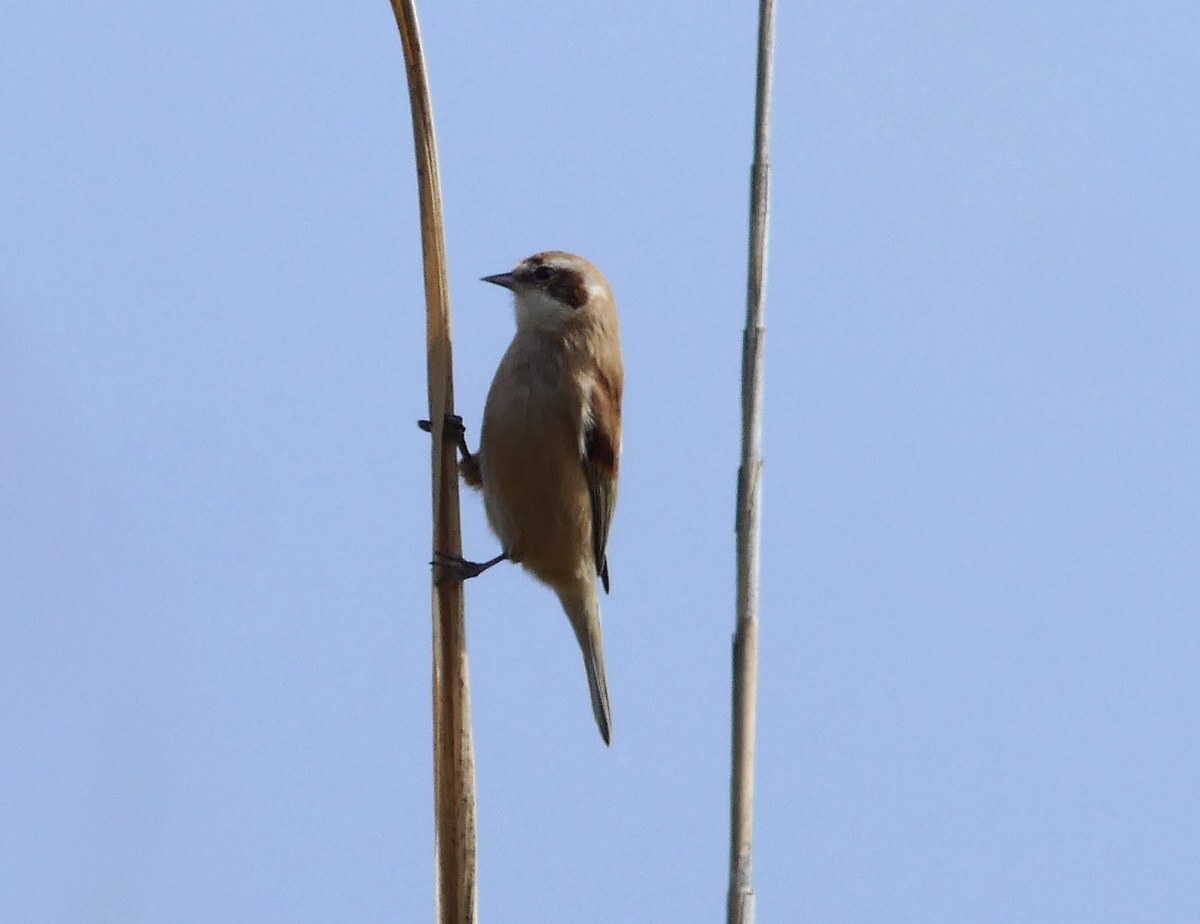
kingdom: Animalia
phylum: Chordata
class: Aves
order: Passeriformes
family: Remizidae
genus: Remiz
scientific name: Remiz pendulinus
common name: Eurasian penduline tit
